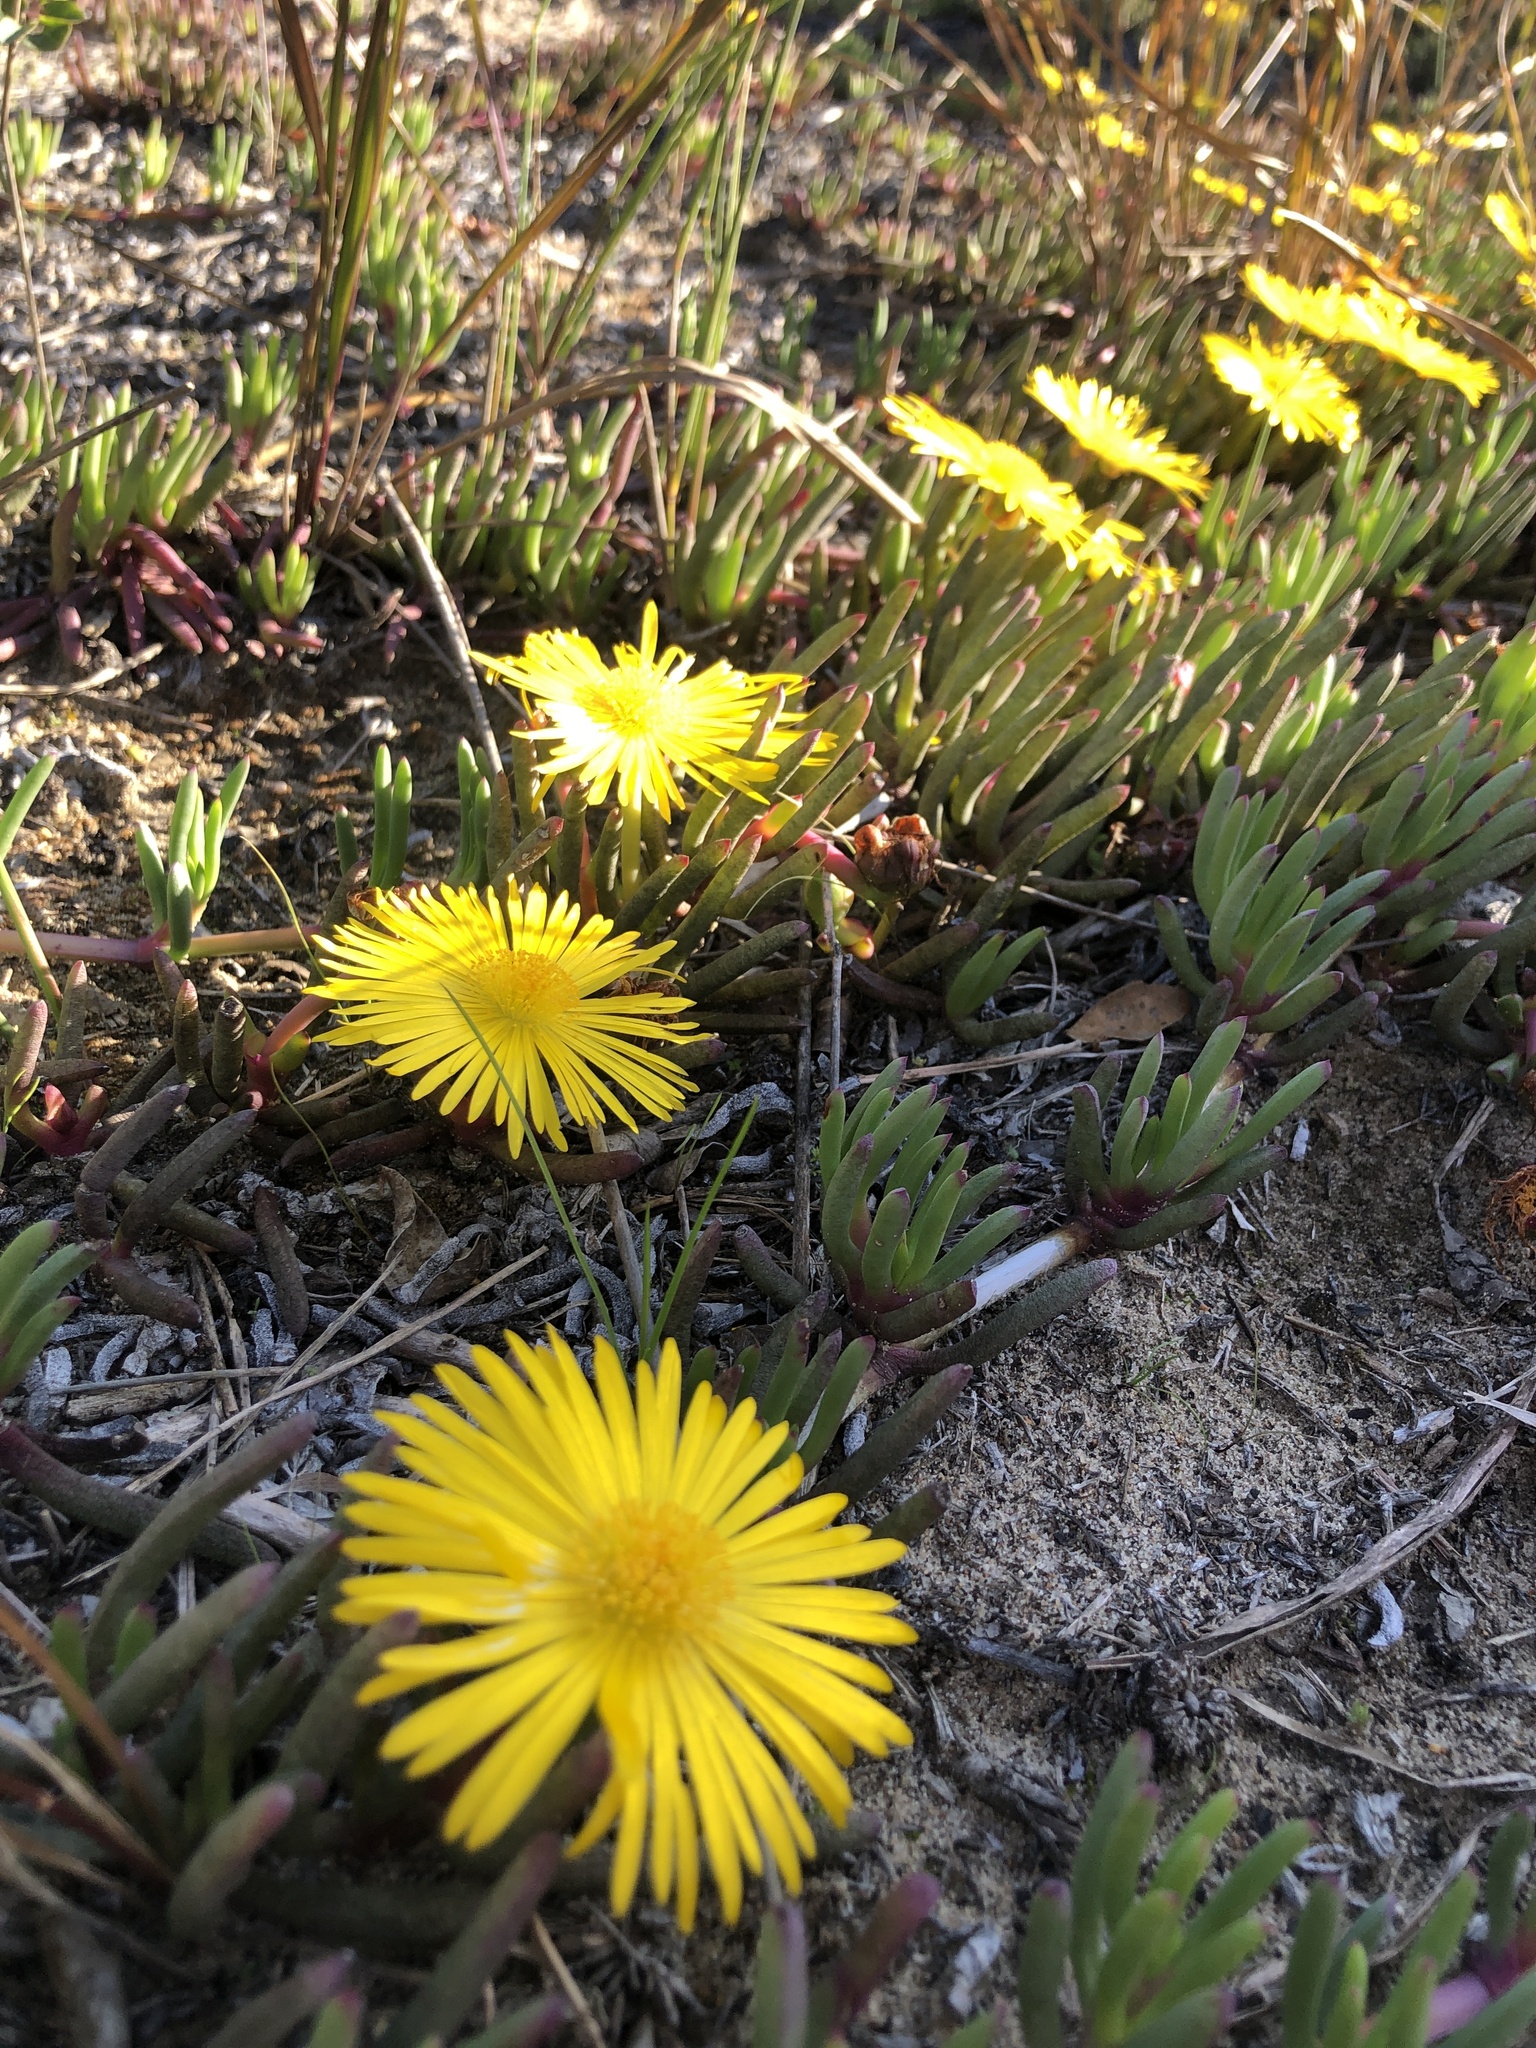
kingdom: Plantae
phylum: Tracheophyta
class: Magnoliopsida
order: Caryophyllales
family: Aizoaceae
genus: Jordaaniella
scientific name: Jordaaniella dubia
